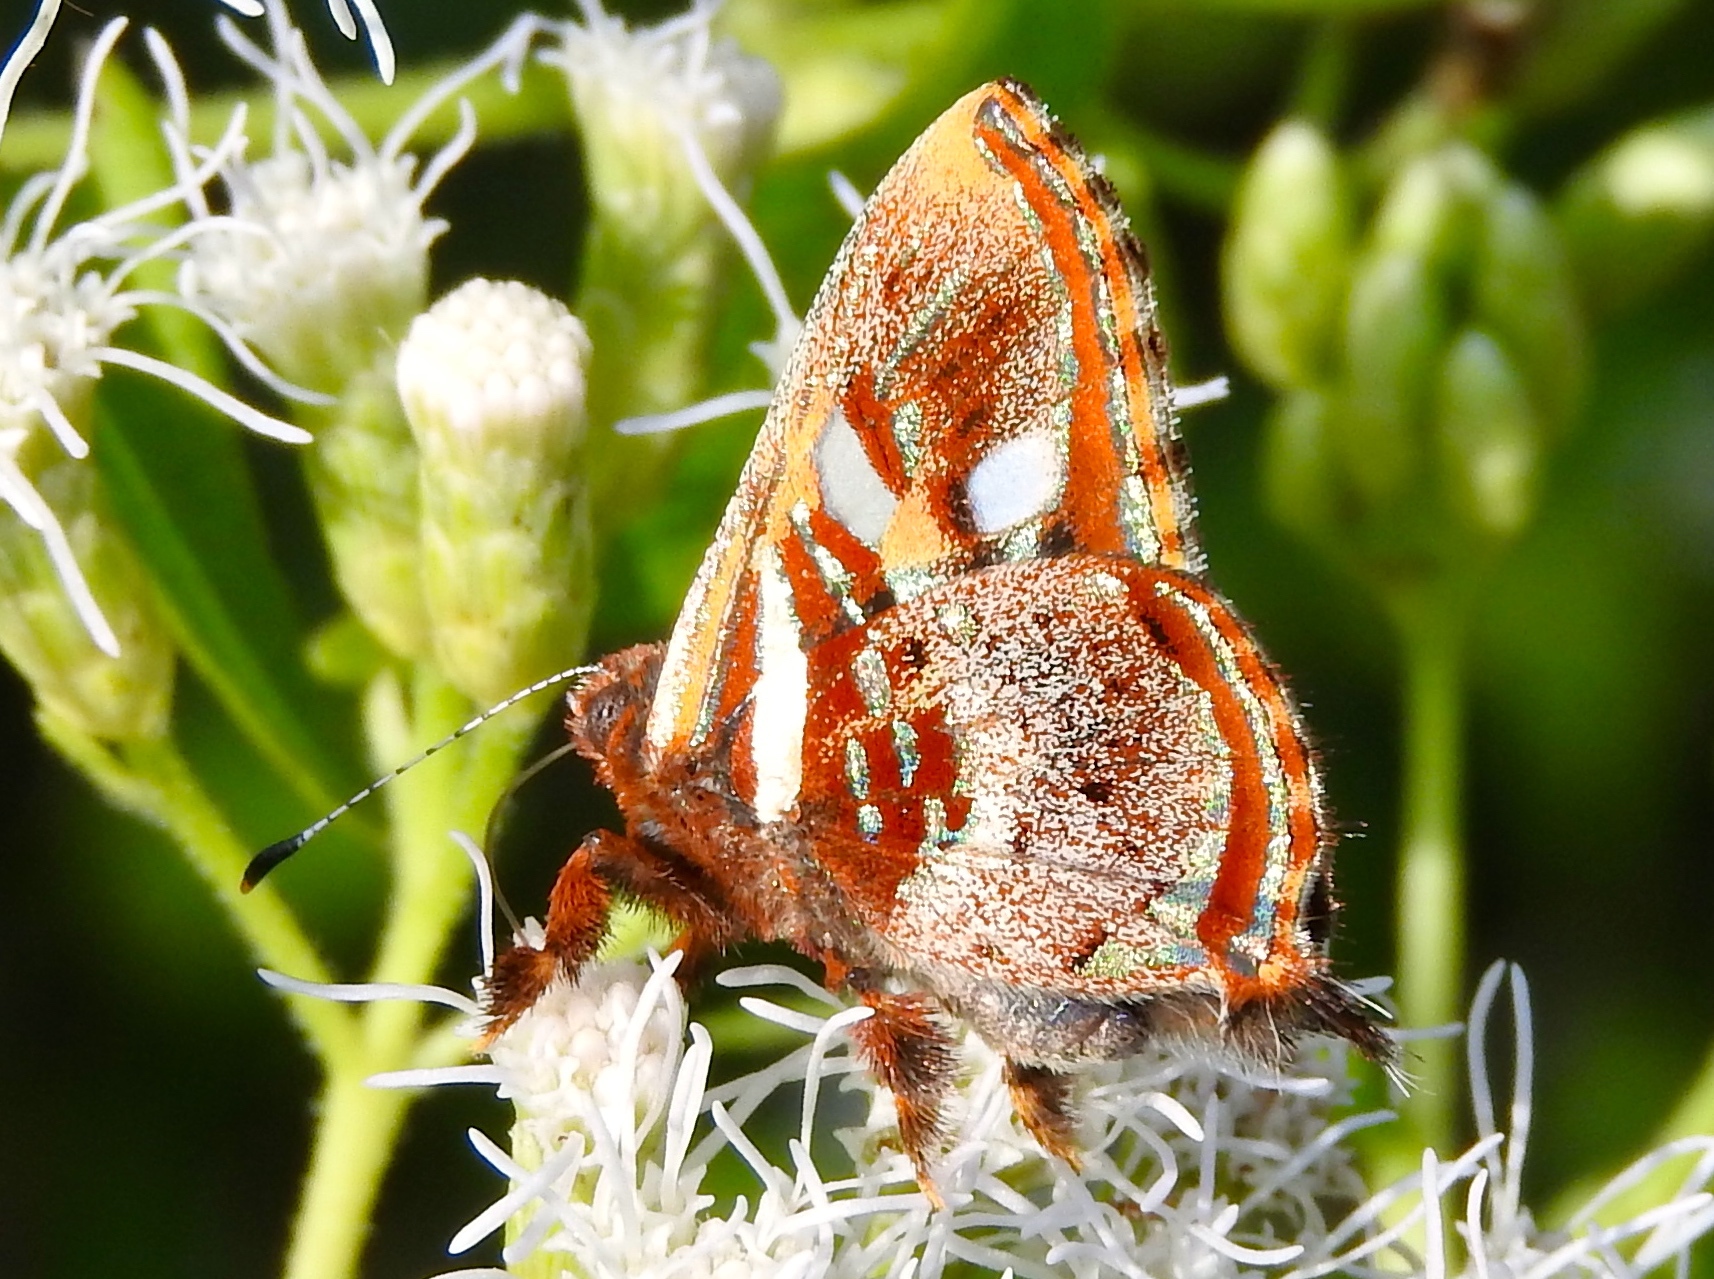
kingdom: Animalia
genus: Anteros
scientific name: Anteros carausius
